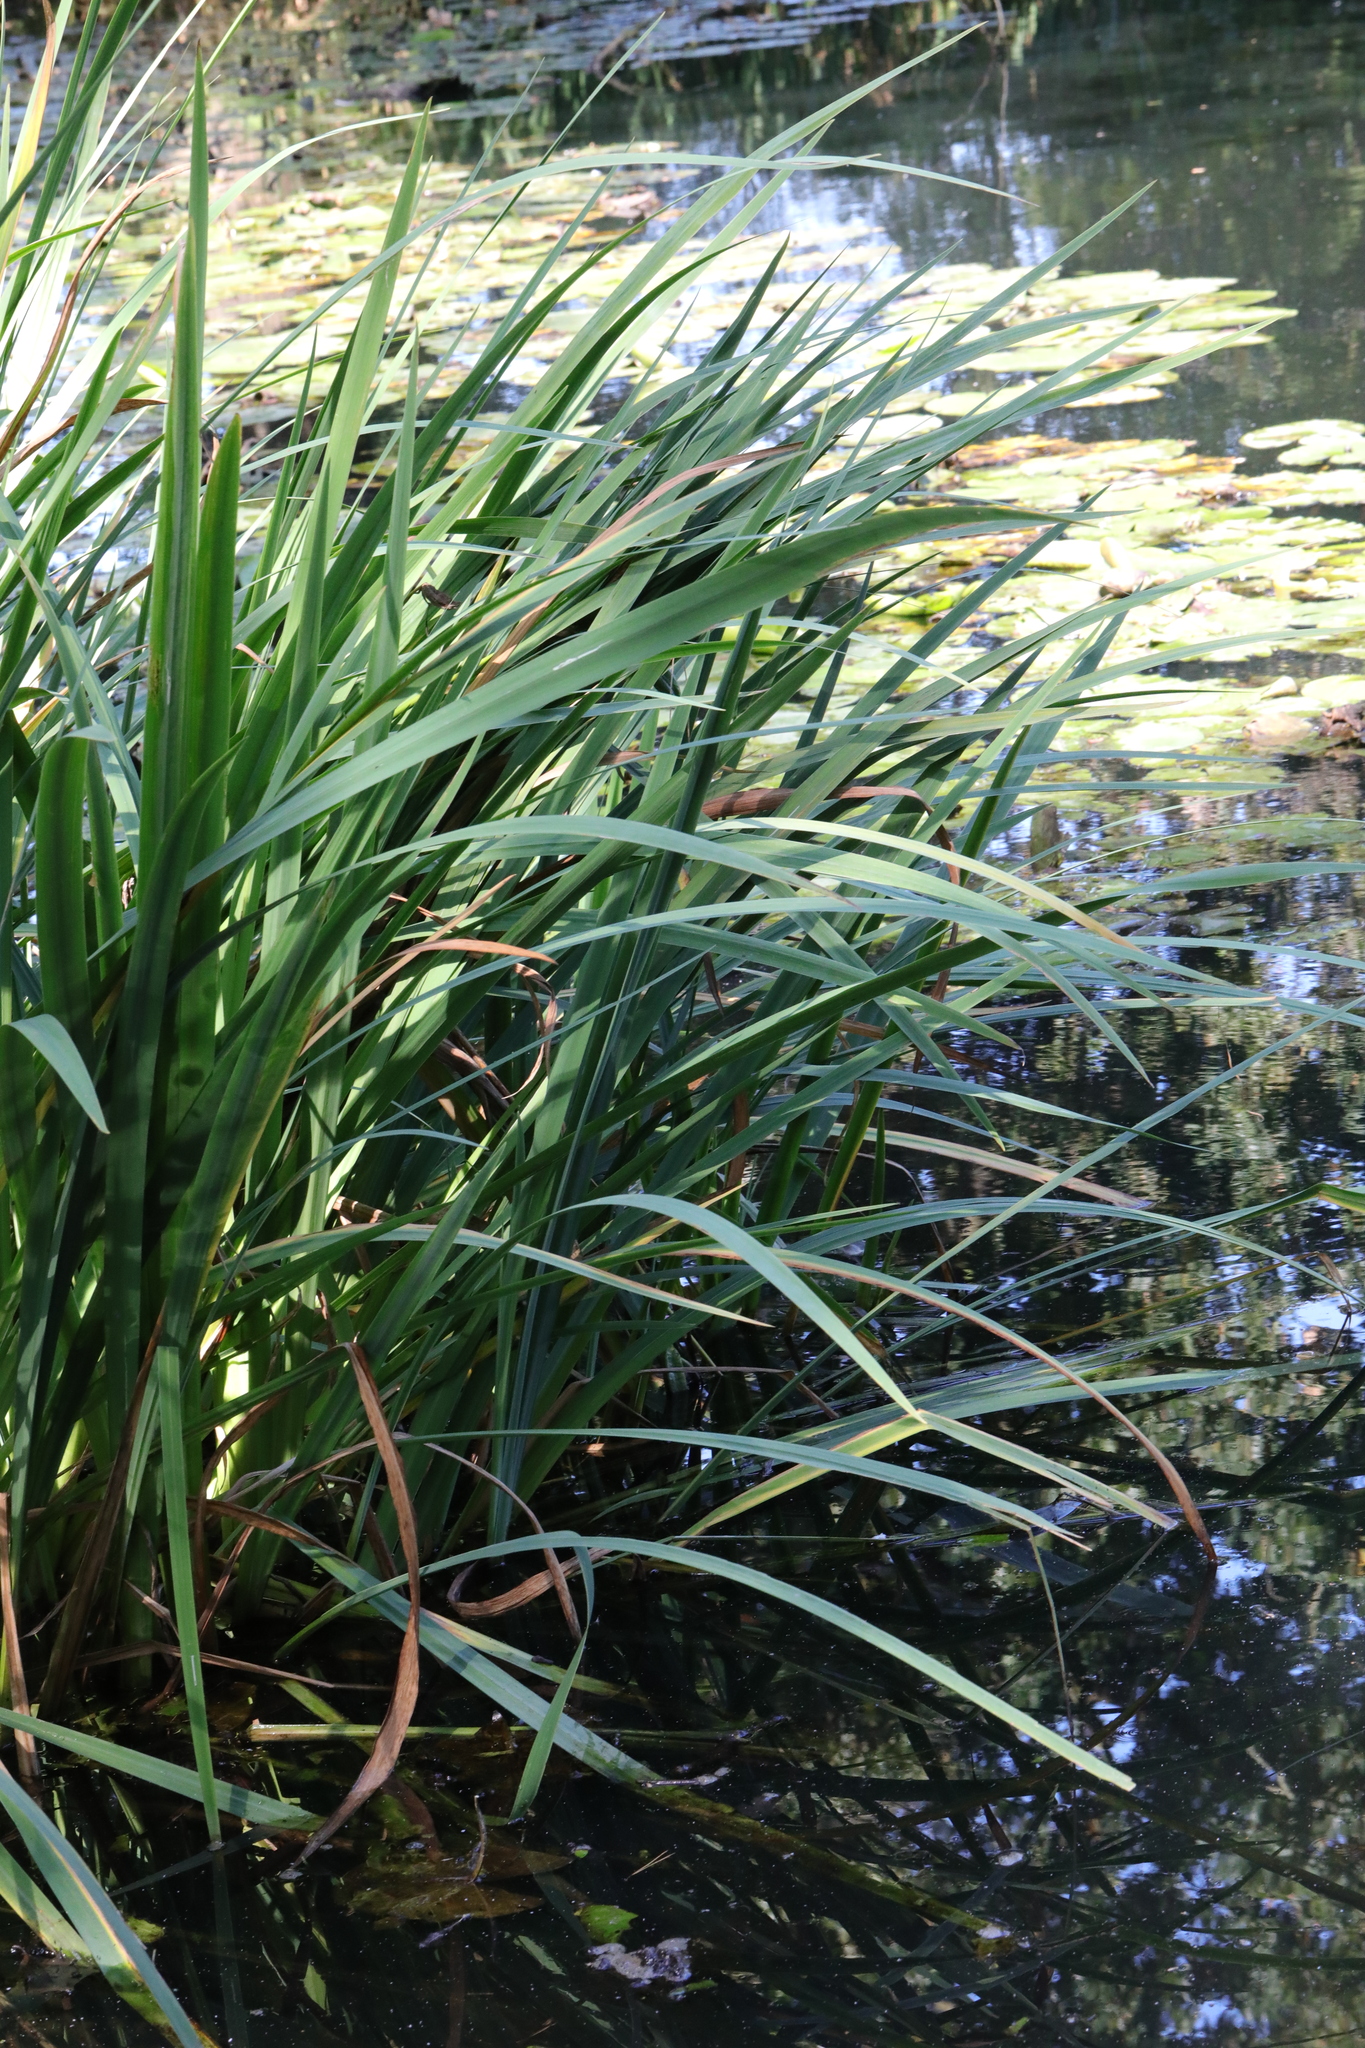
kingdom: Plantae
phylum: Tracheophyta
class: Liliopsida
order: Asparagales
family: Iridaceae
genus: Iris
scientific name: Iris pseudacorus
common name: Yellow flag
